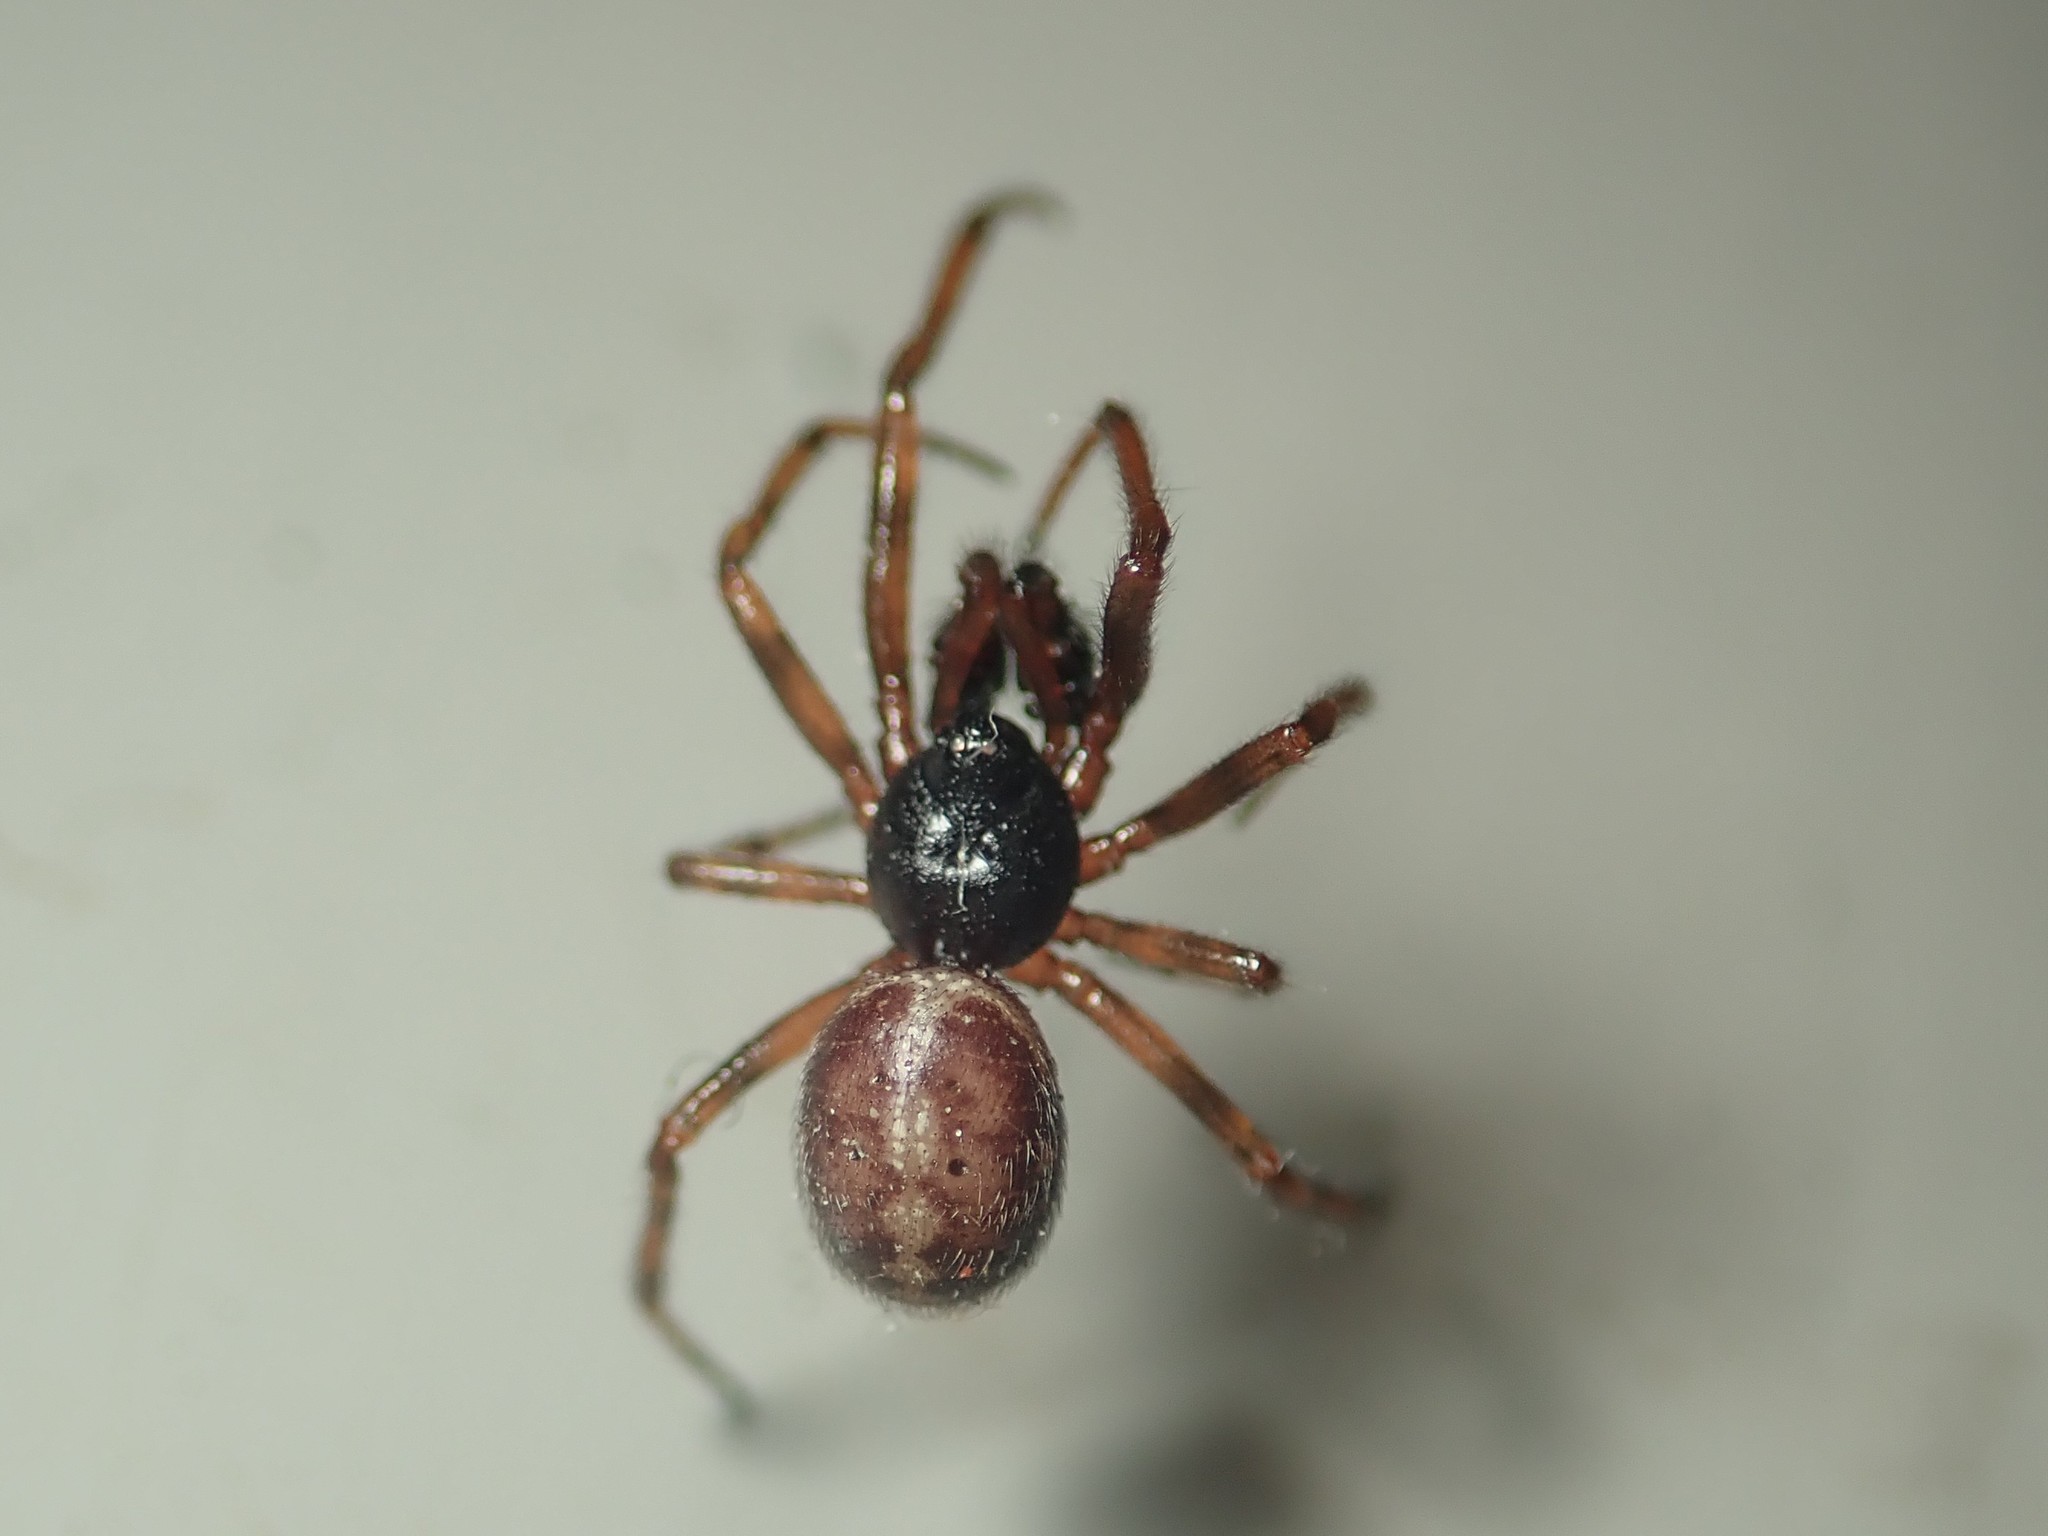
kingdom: Animalia
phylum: Arthropoda
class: Arachnida
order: Araneae
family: Theridiidae
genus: Steatoda
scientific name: Steatoda bipunctata
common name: False widow
